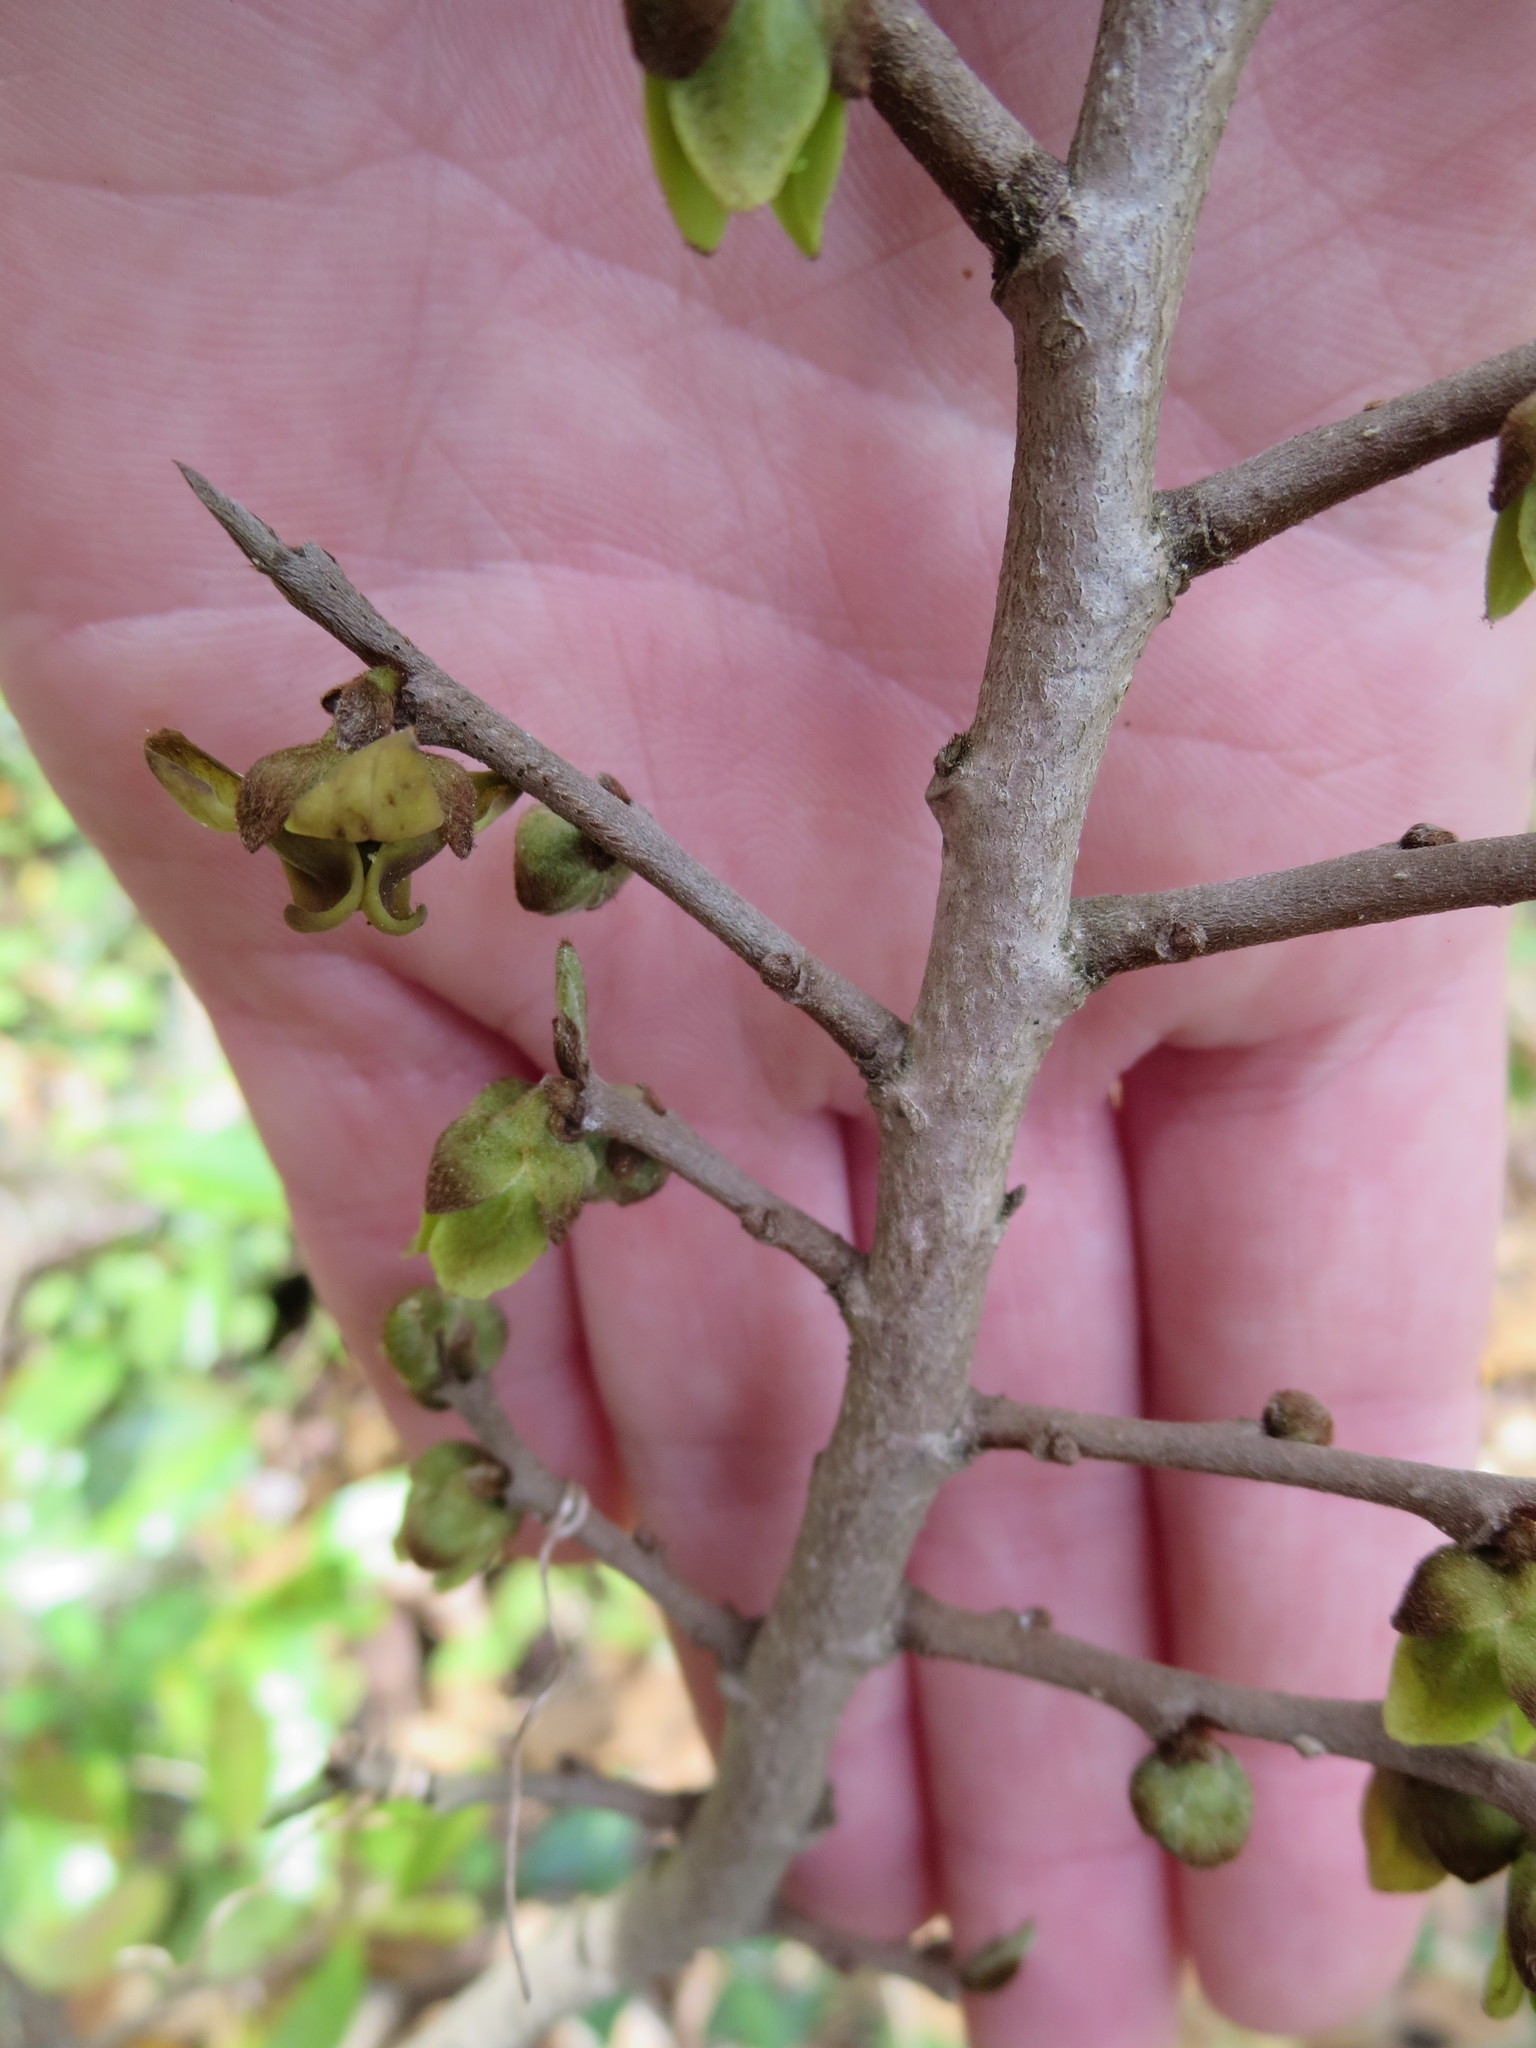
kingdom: Plantae
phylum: Tracheophyta
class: Magnoliopsida
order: Magnoliales
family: Annonaceae
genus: Asimina
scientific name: Asimina parviflora
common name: Dwarf pawpaw
